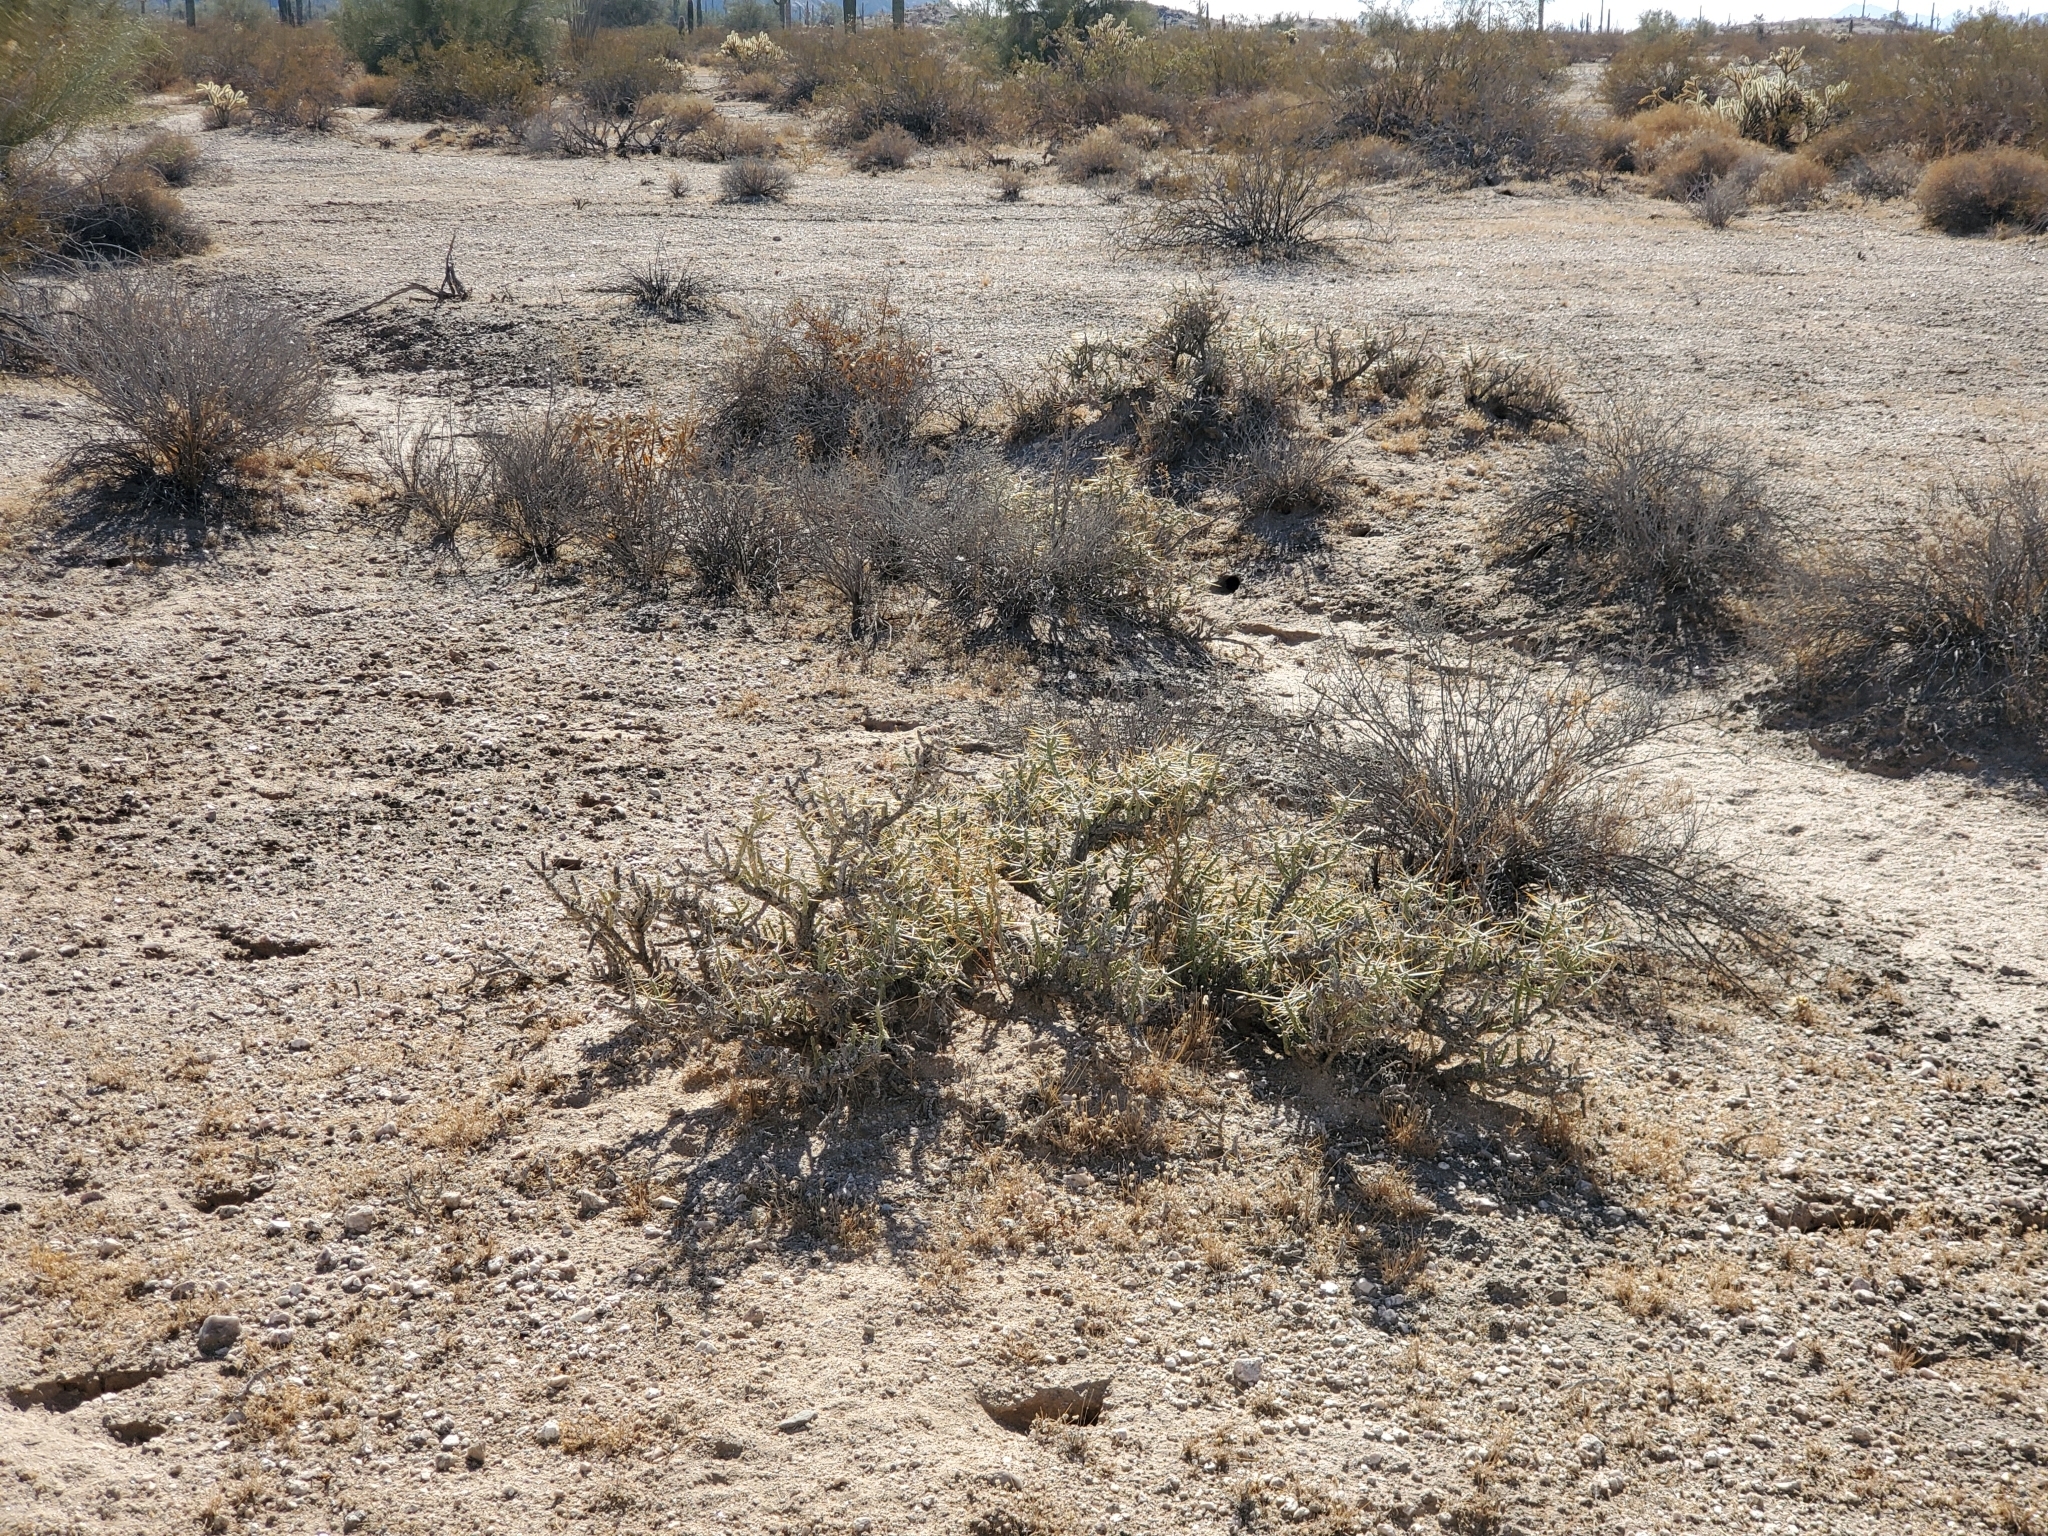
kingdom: Plantae
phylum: Tracheophyta
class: Magnoliopsida
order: Caryophyllales
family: Cactaceae
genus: Cylindropuntia
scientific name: Cylindropuntia ramosissima
